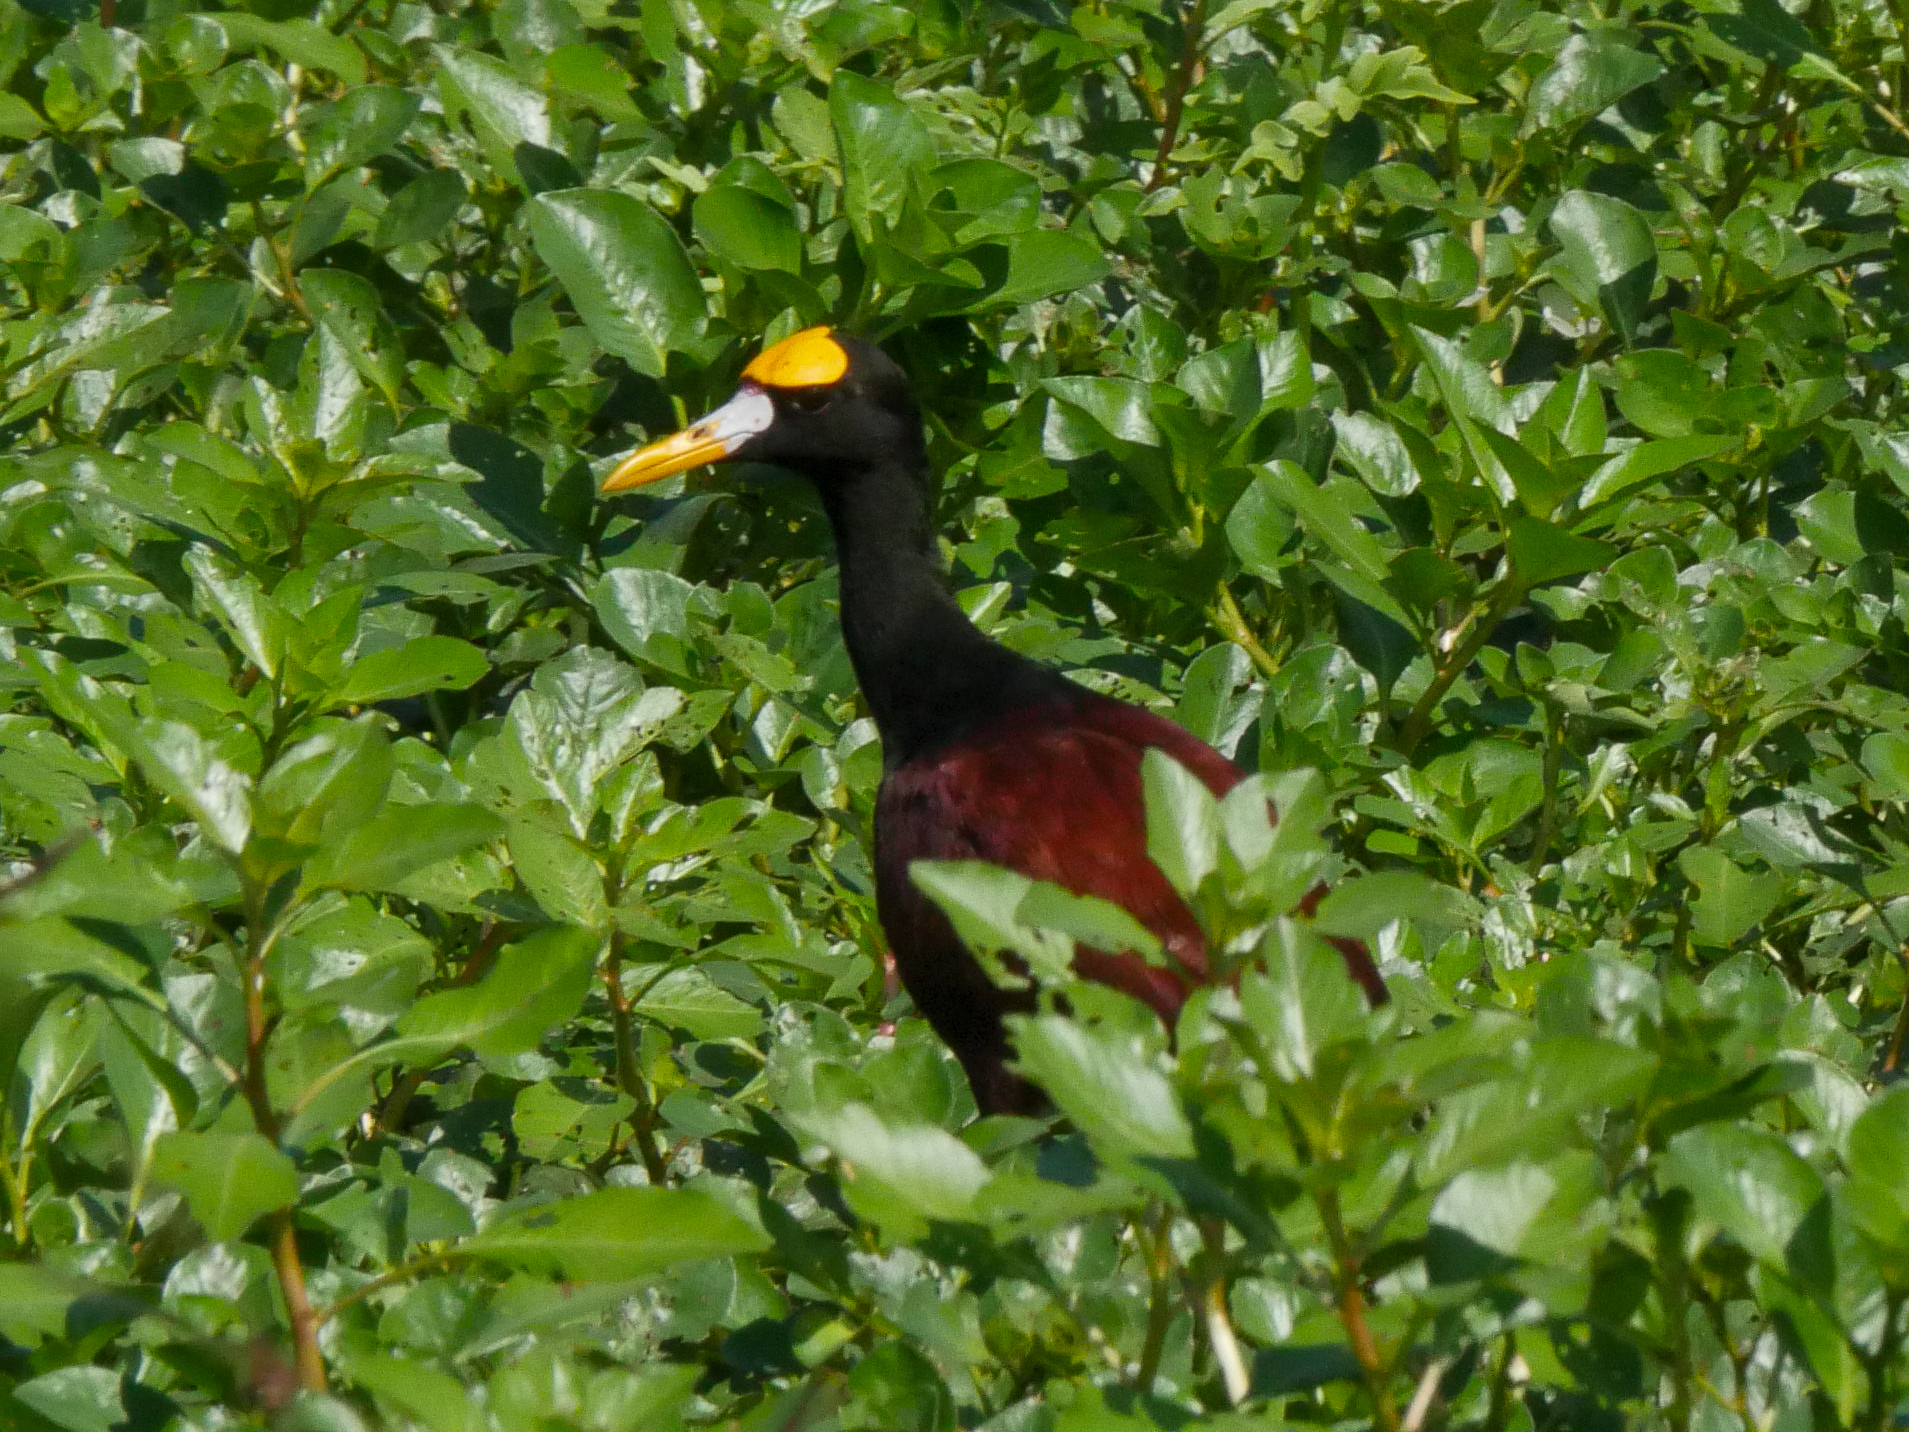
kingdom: Animalia
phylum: Chordata
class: Aves
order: Charadriiformes
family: Jacanidae
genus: Jacana
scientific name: Jacana spinosa
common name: Northern jacana
